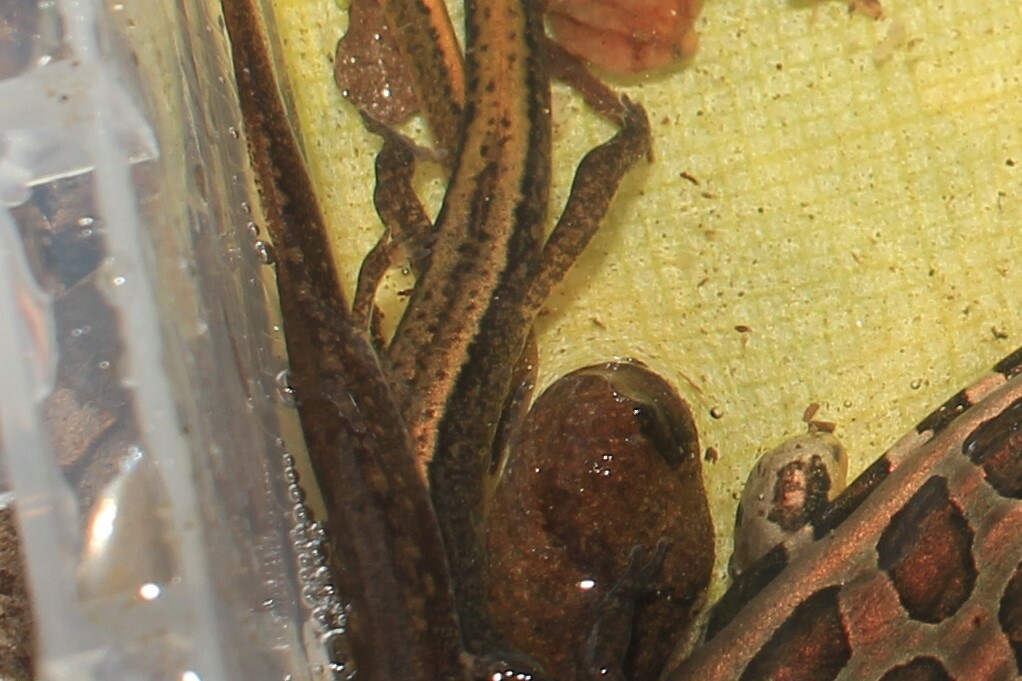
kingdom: Animalia
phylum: Chordata
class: Amphibia
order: Caudata
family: Plethodontidae
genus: Eurycea
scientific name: Eurycea bislineata
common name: Northern two-lined salamander
